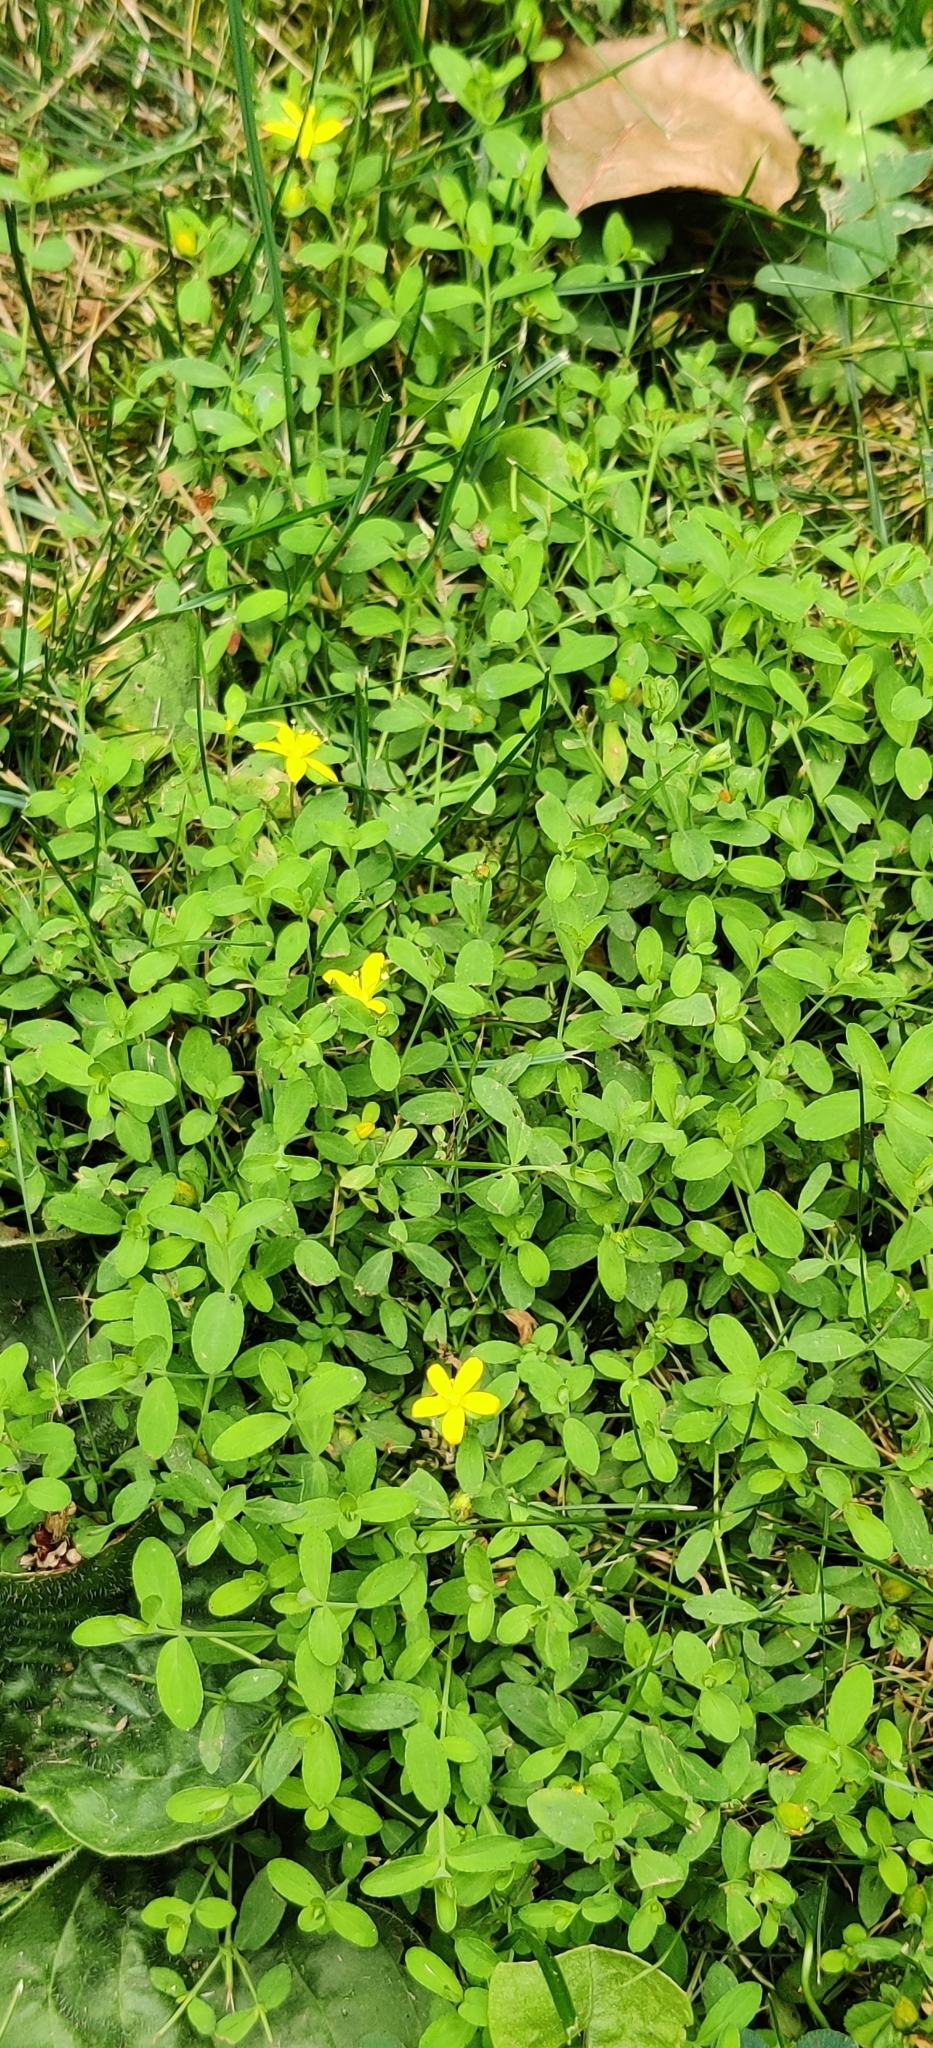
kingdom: Plantae
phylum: Tracheophyta
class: Magnoliopsida
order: Malpighiales
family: Hypericaceae
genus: Hypericum
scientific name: Hypericum humifusum
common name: Trailing st. john's-wort
